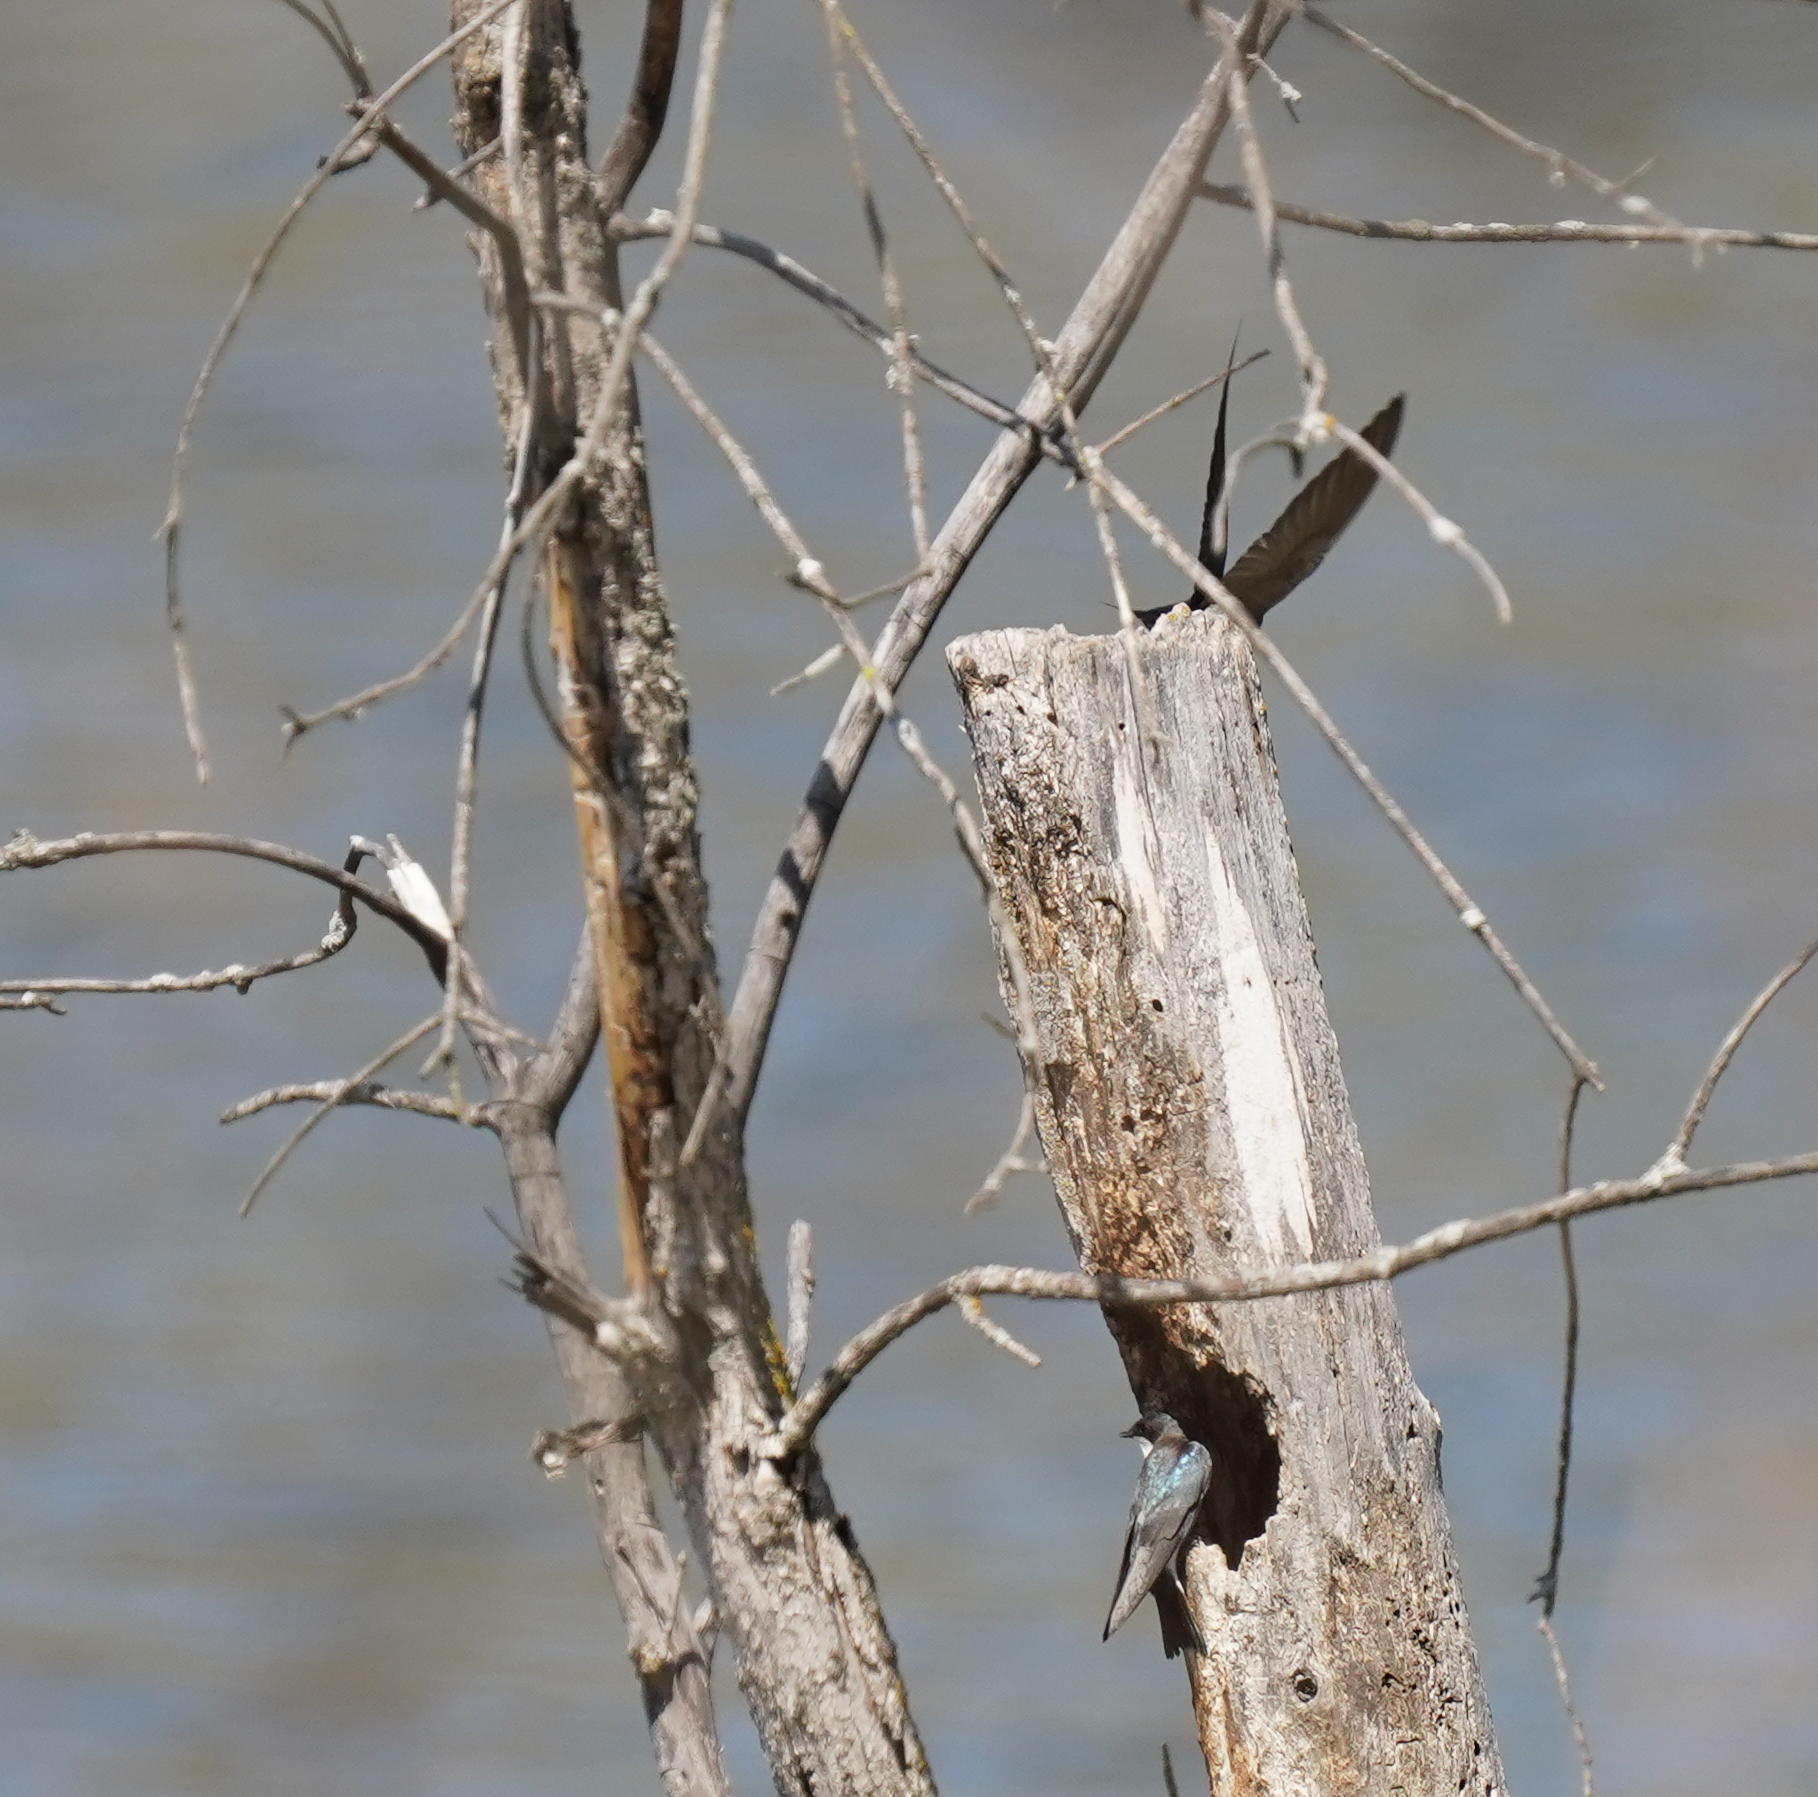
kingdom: Animalia
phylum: Chordata
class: Aves
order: Passeriformes
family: Hirundinidae
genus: Tachycineta
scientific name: Tachycineta bicolor
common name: Tree swallow
